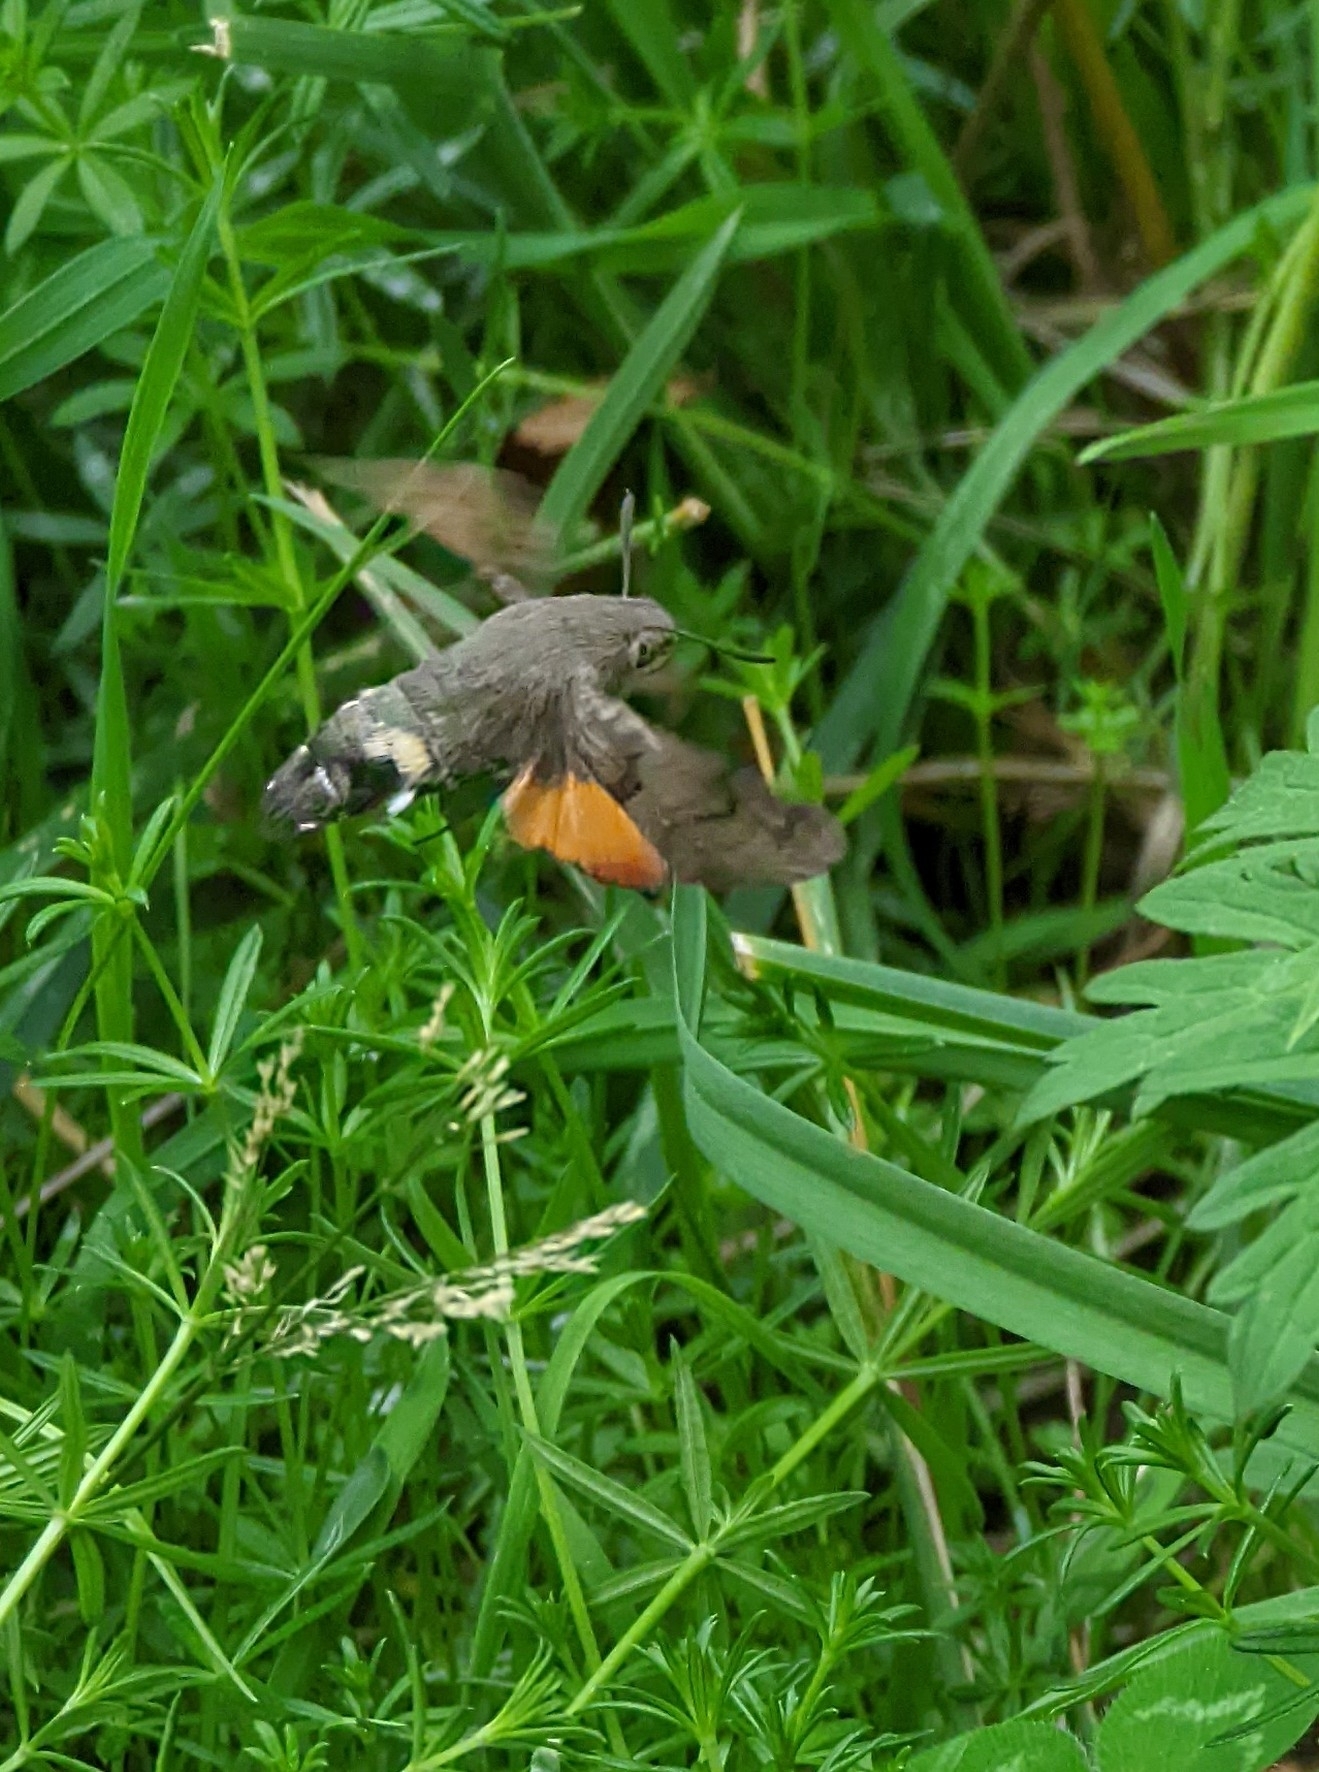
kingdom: Animalia
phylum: Arthropoda
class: Insecta
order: Lepidoptera
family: Sphingidae
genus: Macroglossum
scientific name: Macroglossum stellatarum
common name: Humming-bird hawk-moth
